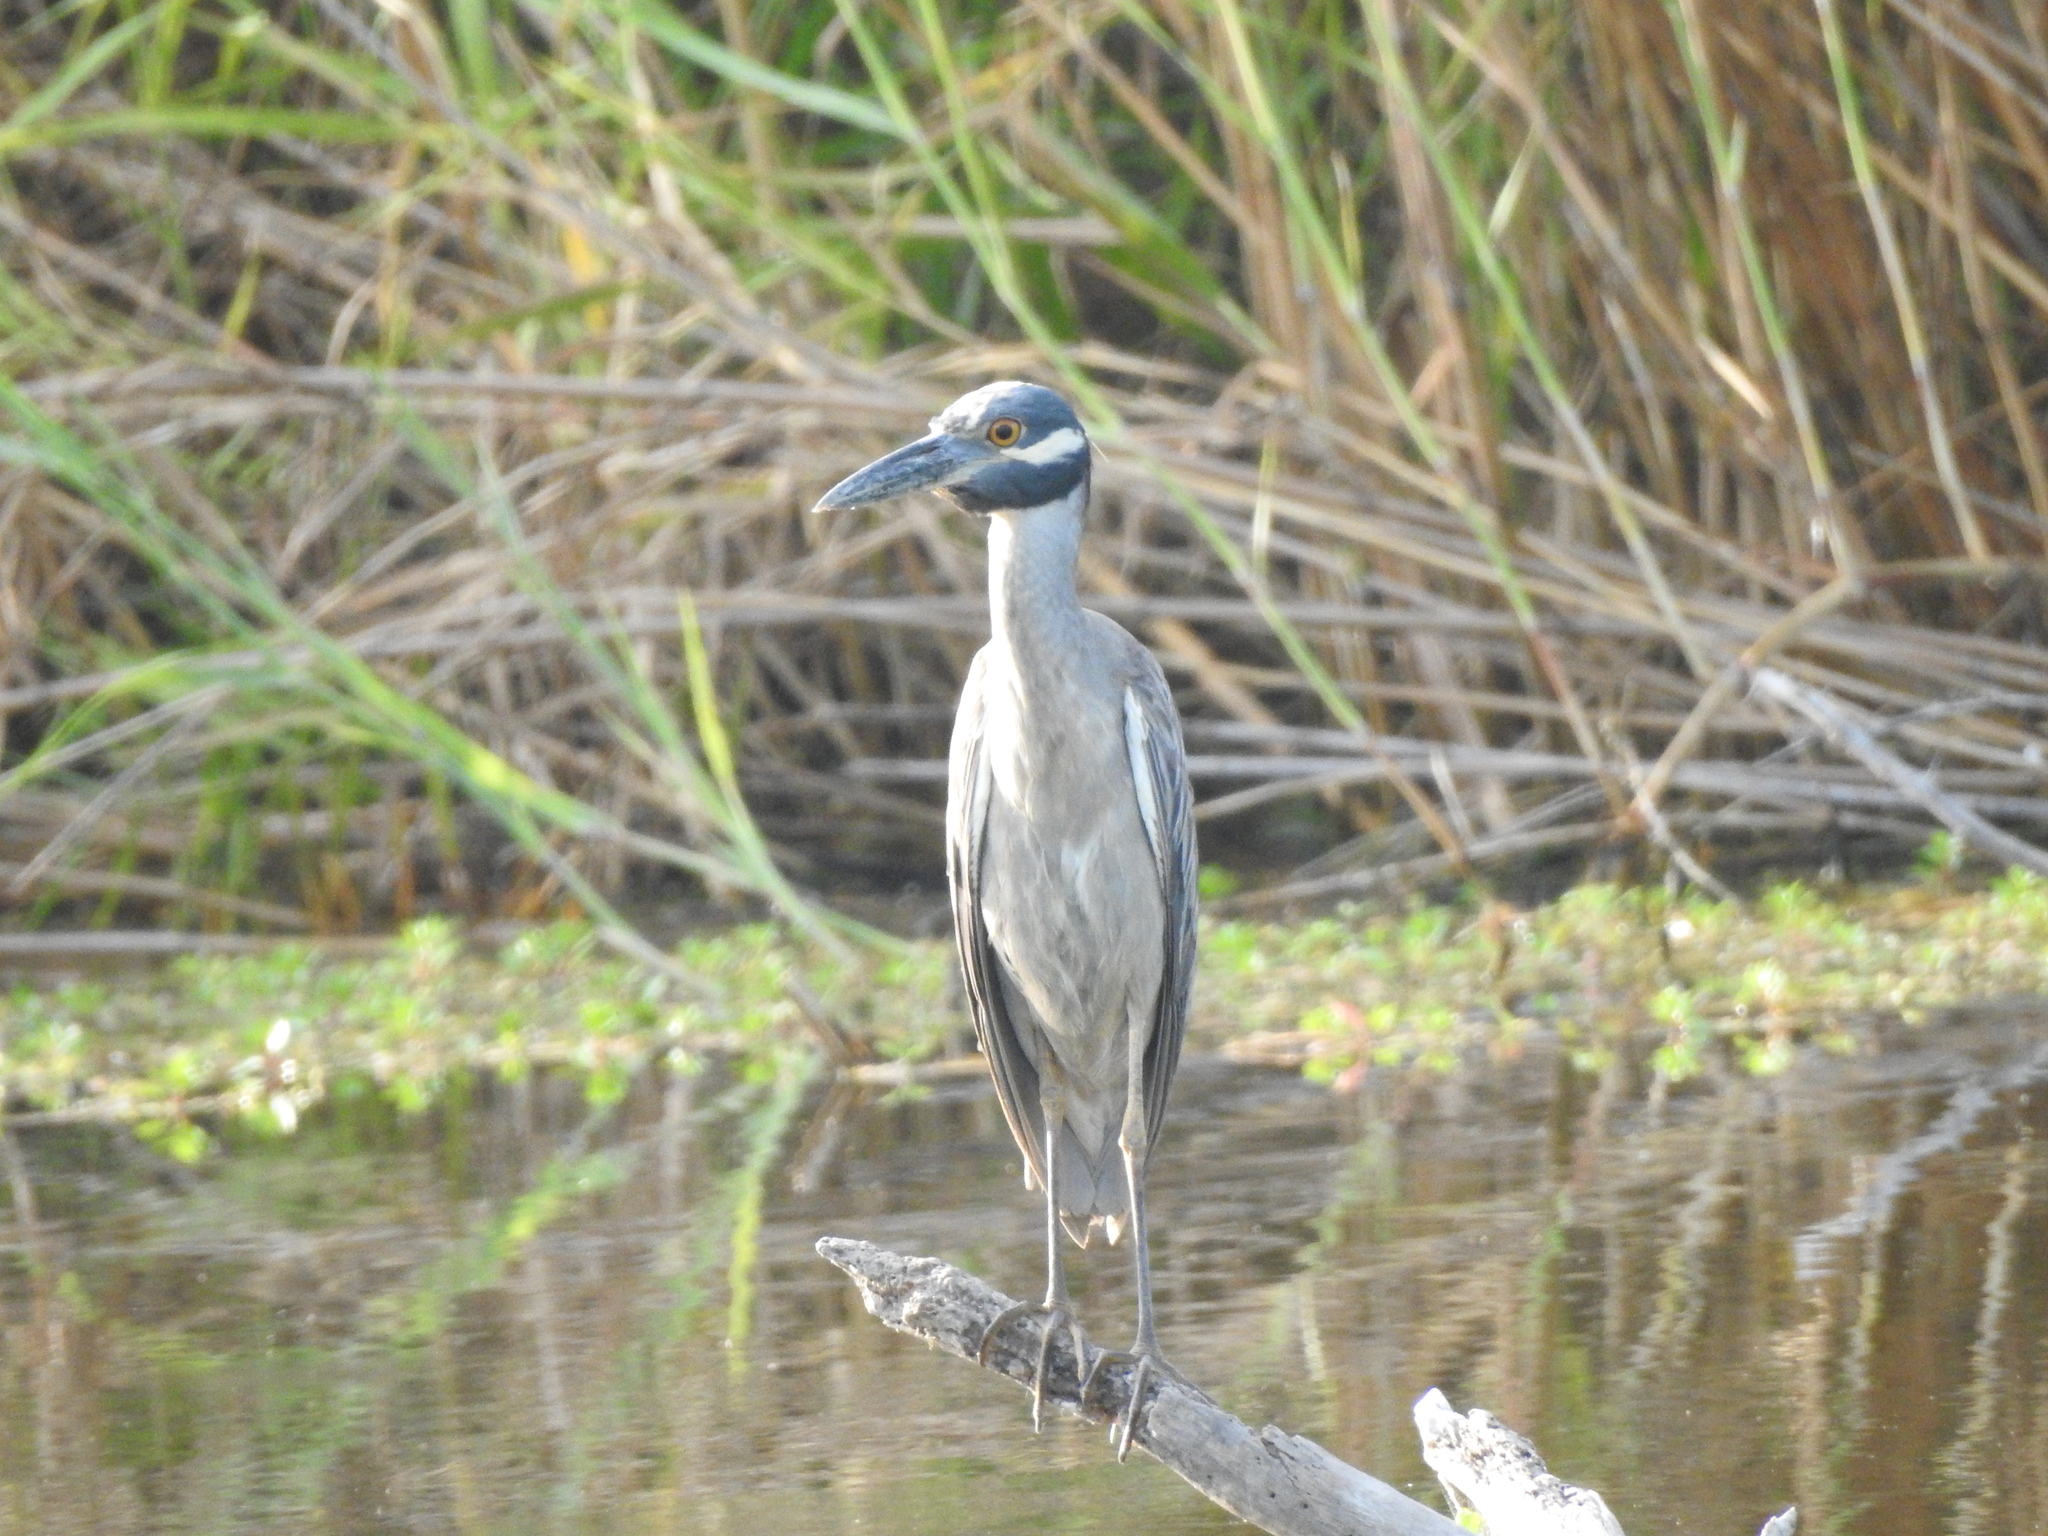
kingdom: Animalia
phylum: Chordata
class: Aves
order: Pelecaniformes
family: Ardeidae
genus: Nyctanassa
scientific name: Nyctanassa violacea
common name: Yellow-crowned night heron
